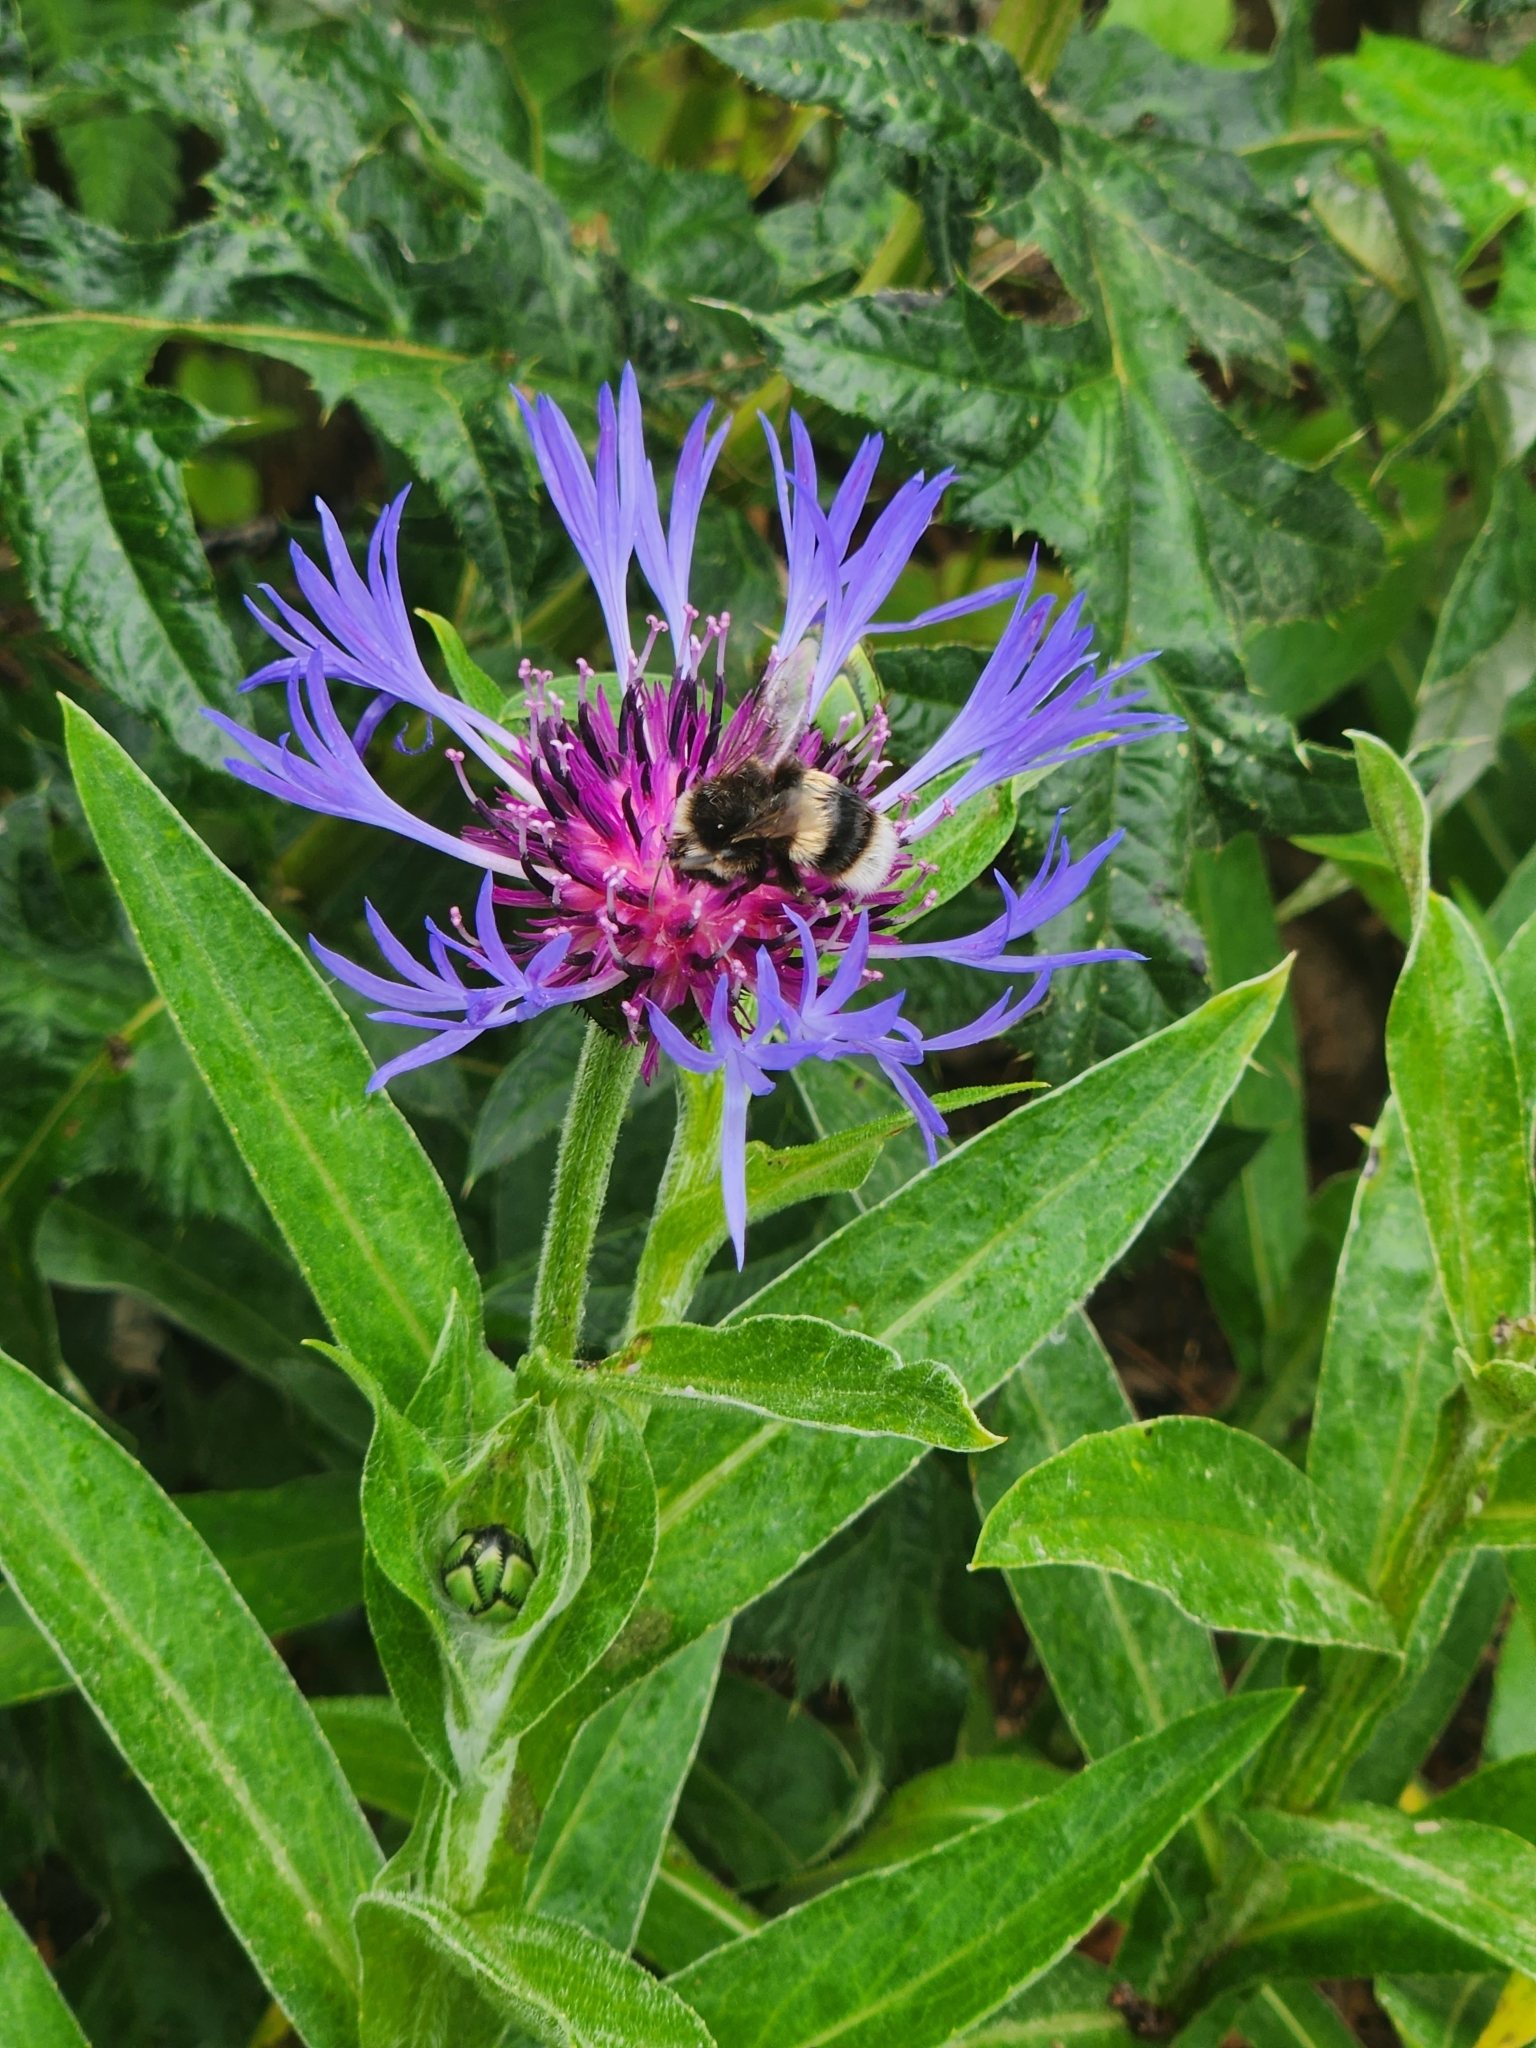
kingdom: Animalia
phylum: Arthropoda
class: Insecta
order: Hymenoptera
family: Apidae
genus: Bombus
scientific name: Bombus terrestris
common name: Buff-tailed bumblebee
